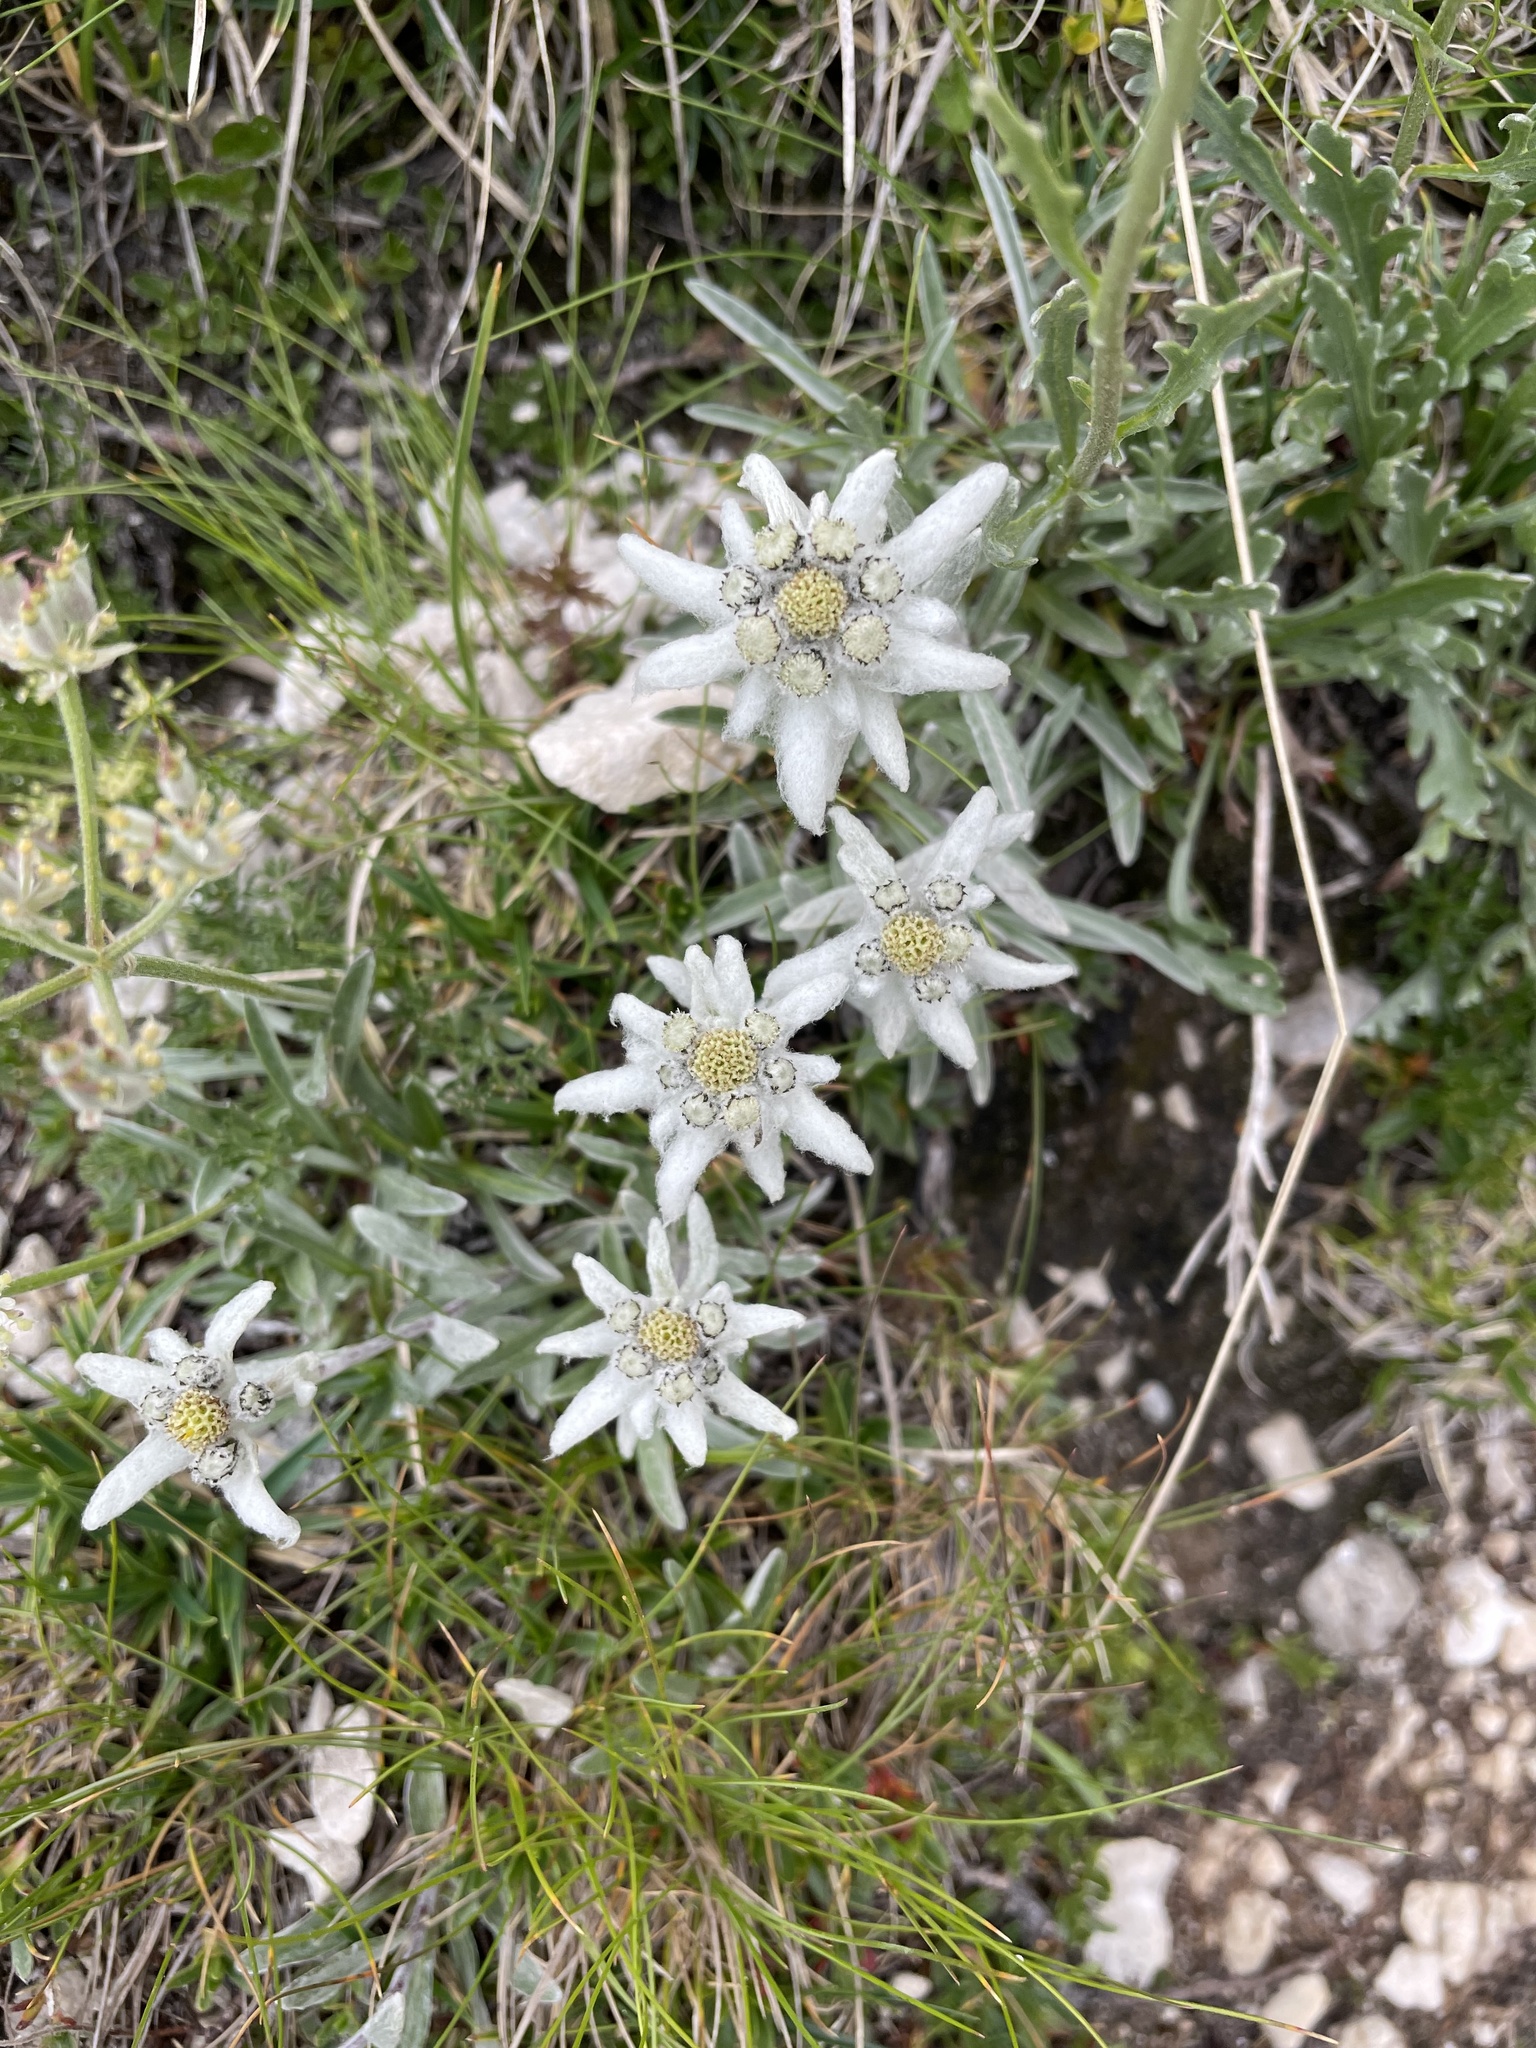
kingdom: Plantae
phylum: Tracheophyta
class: Magnoliopsida
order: Asterales
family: Asteraceae
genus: Leontopodium
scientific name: Leontopodium nivale
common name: Edelweiss
